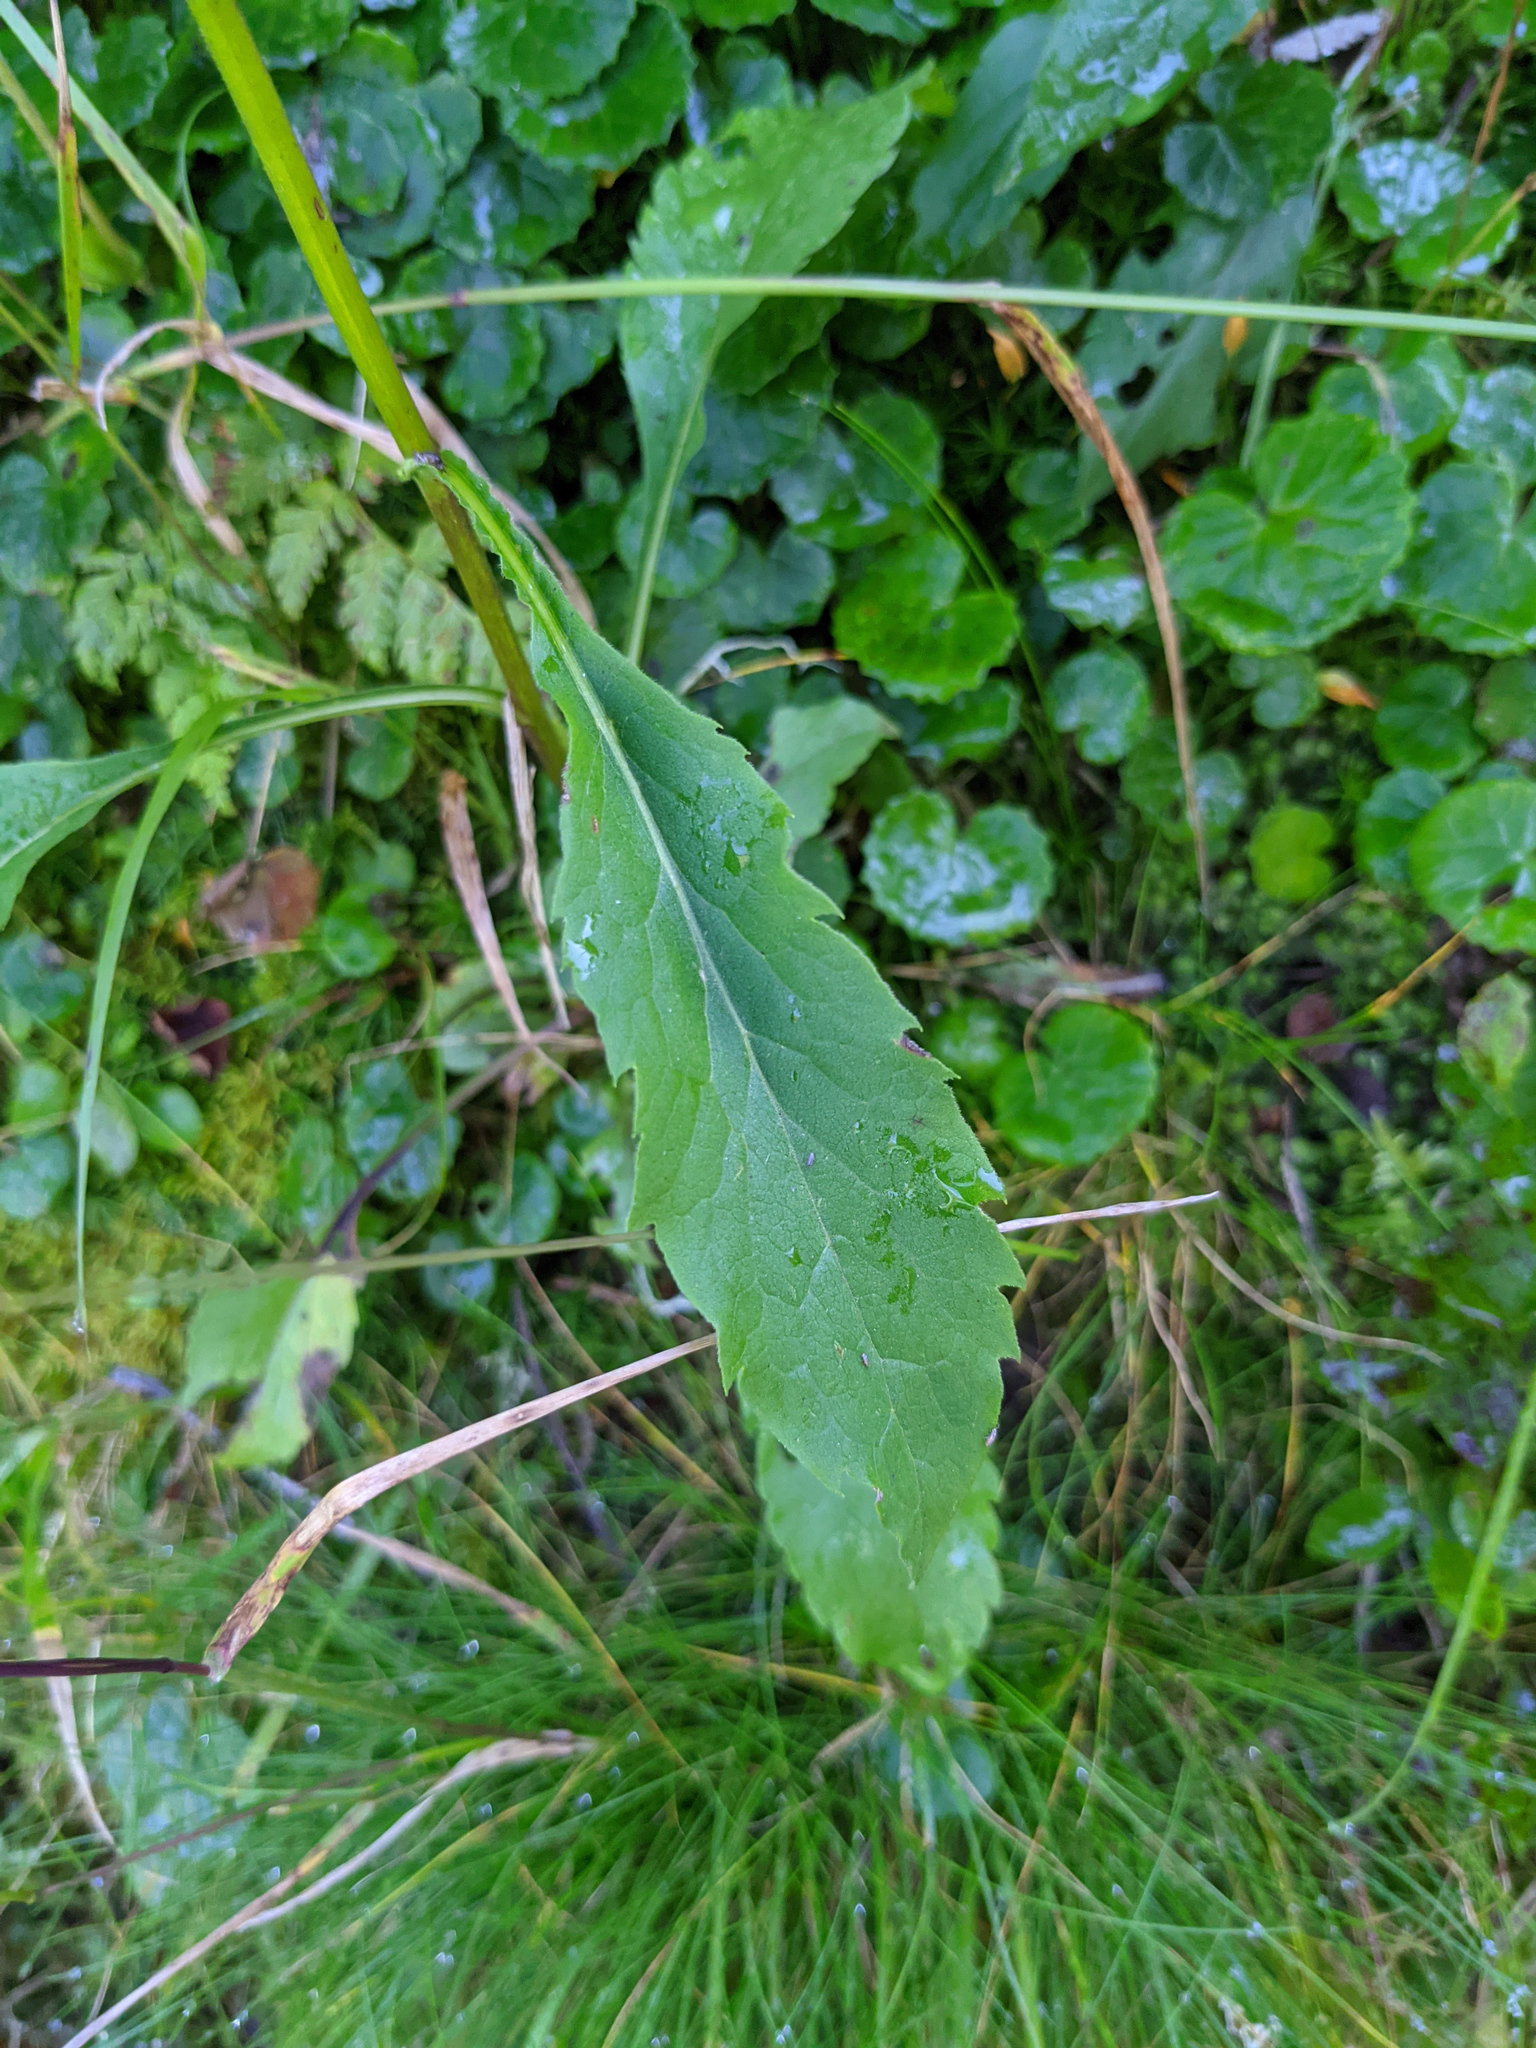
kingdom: Plantae
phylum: Tracheophyta
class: Magnoliopsida
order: Asterales
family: Asteraceae
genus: Solidago
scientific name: Solidago virgaurea
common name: Goldenrod
